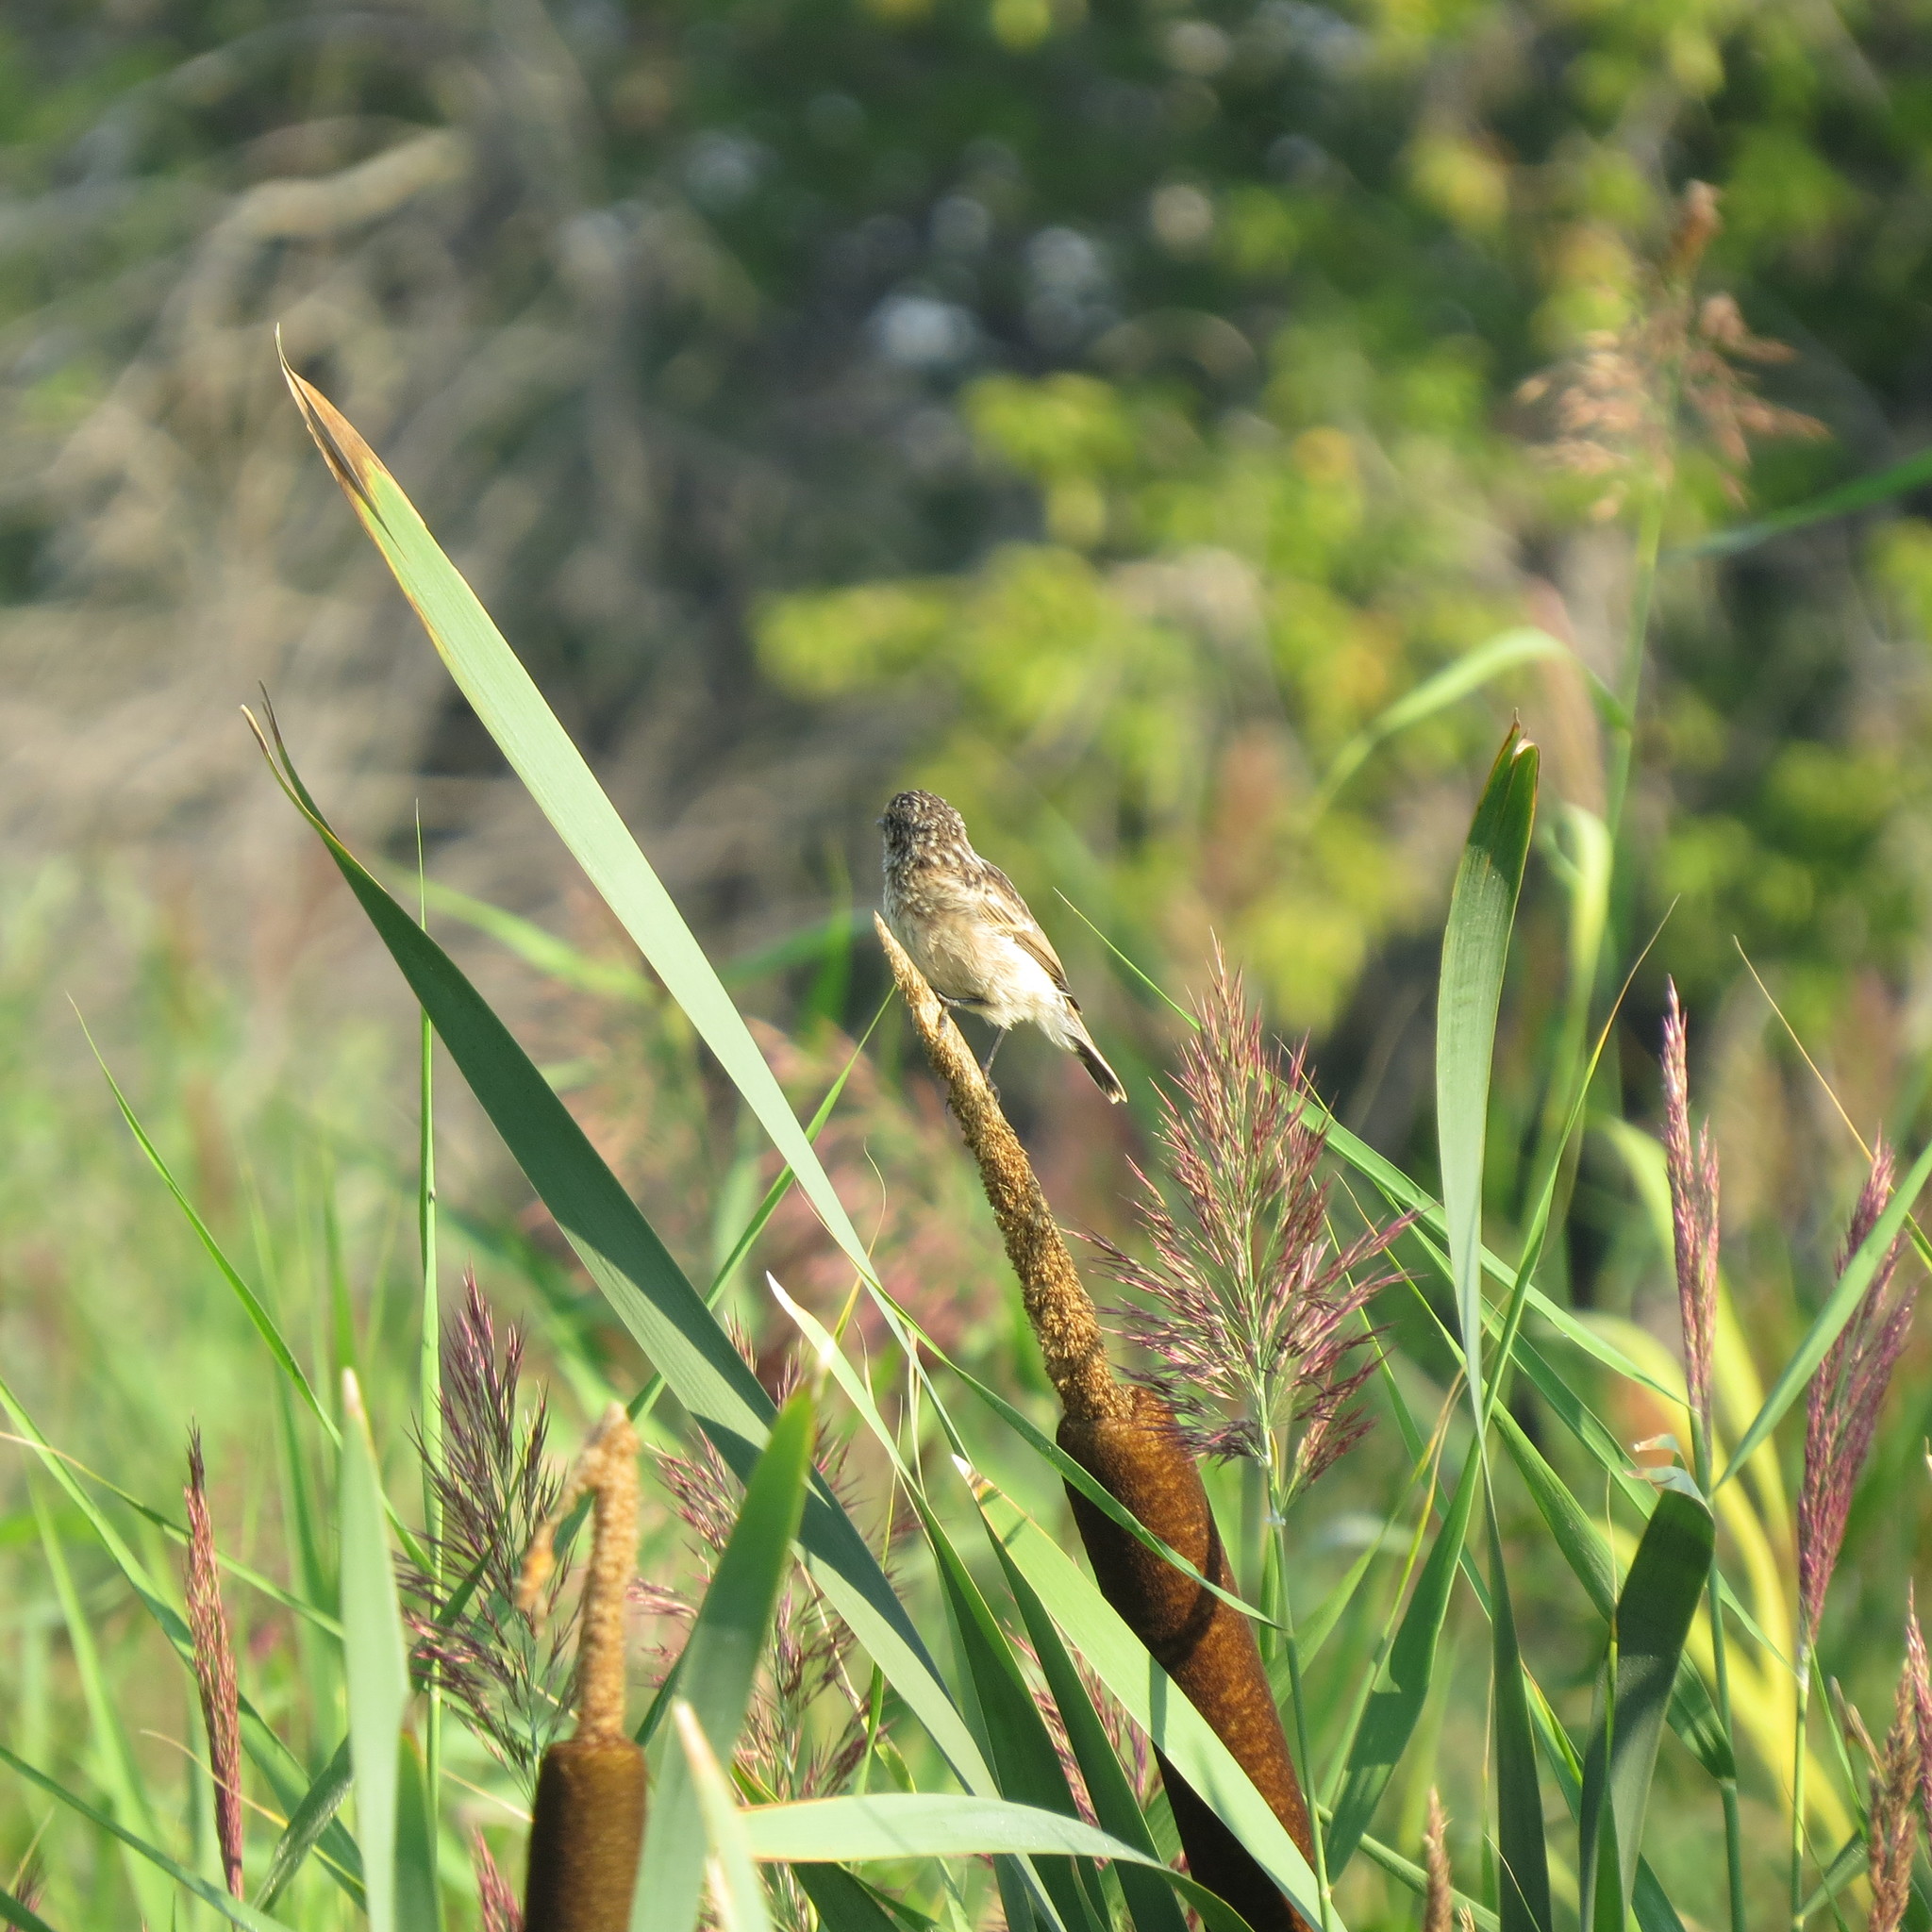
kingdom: Animalia
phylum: Chordata
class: Aves
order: Passeriformes
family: Muscicapidae
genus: Saxicola
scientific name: Saxicola maurus
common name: Siberian stonechat
